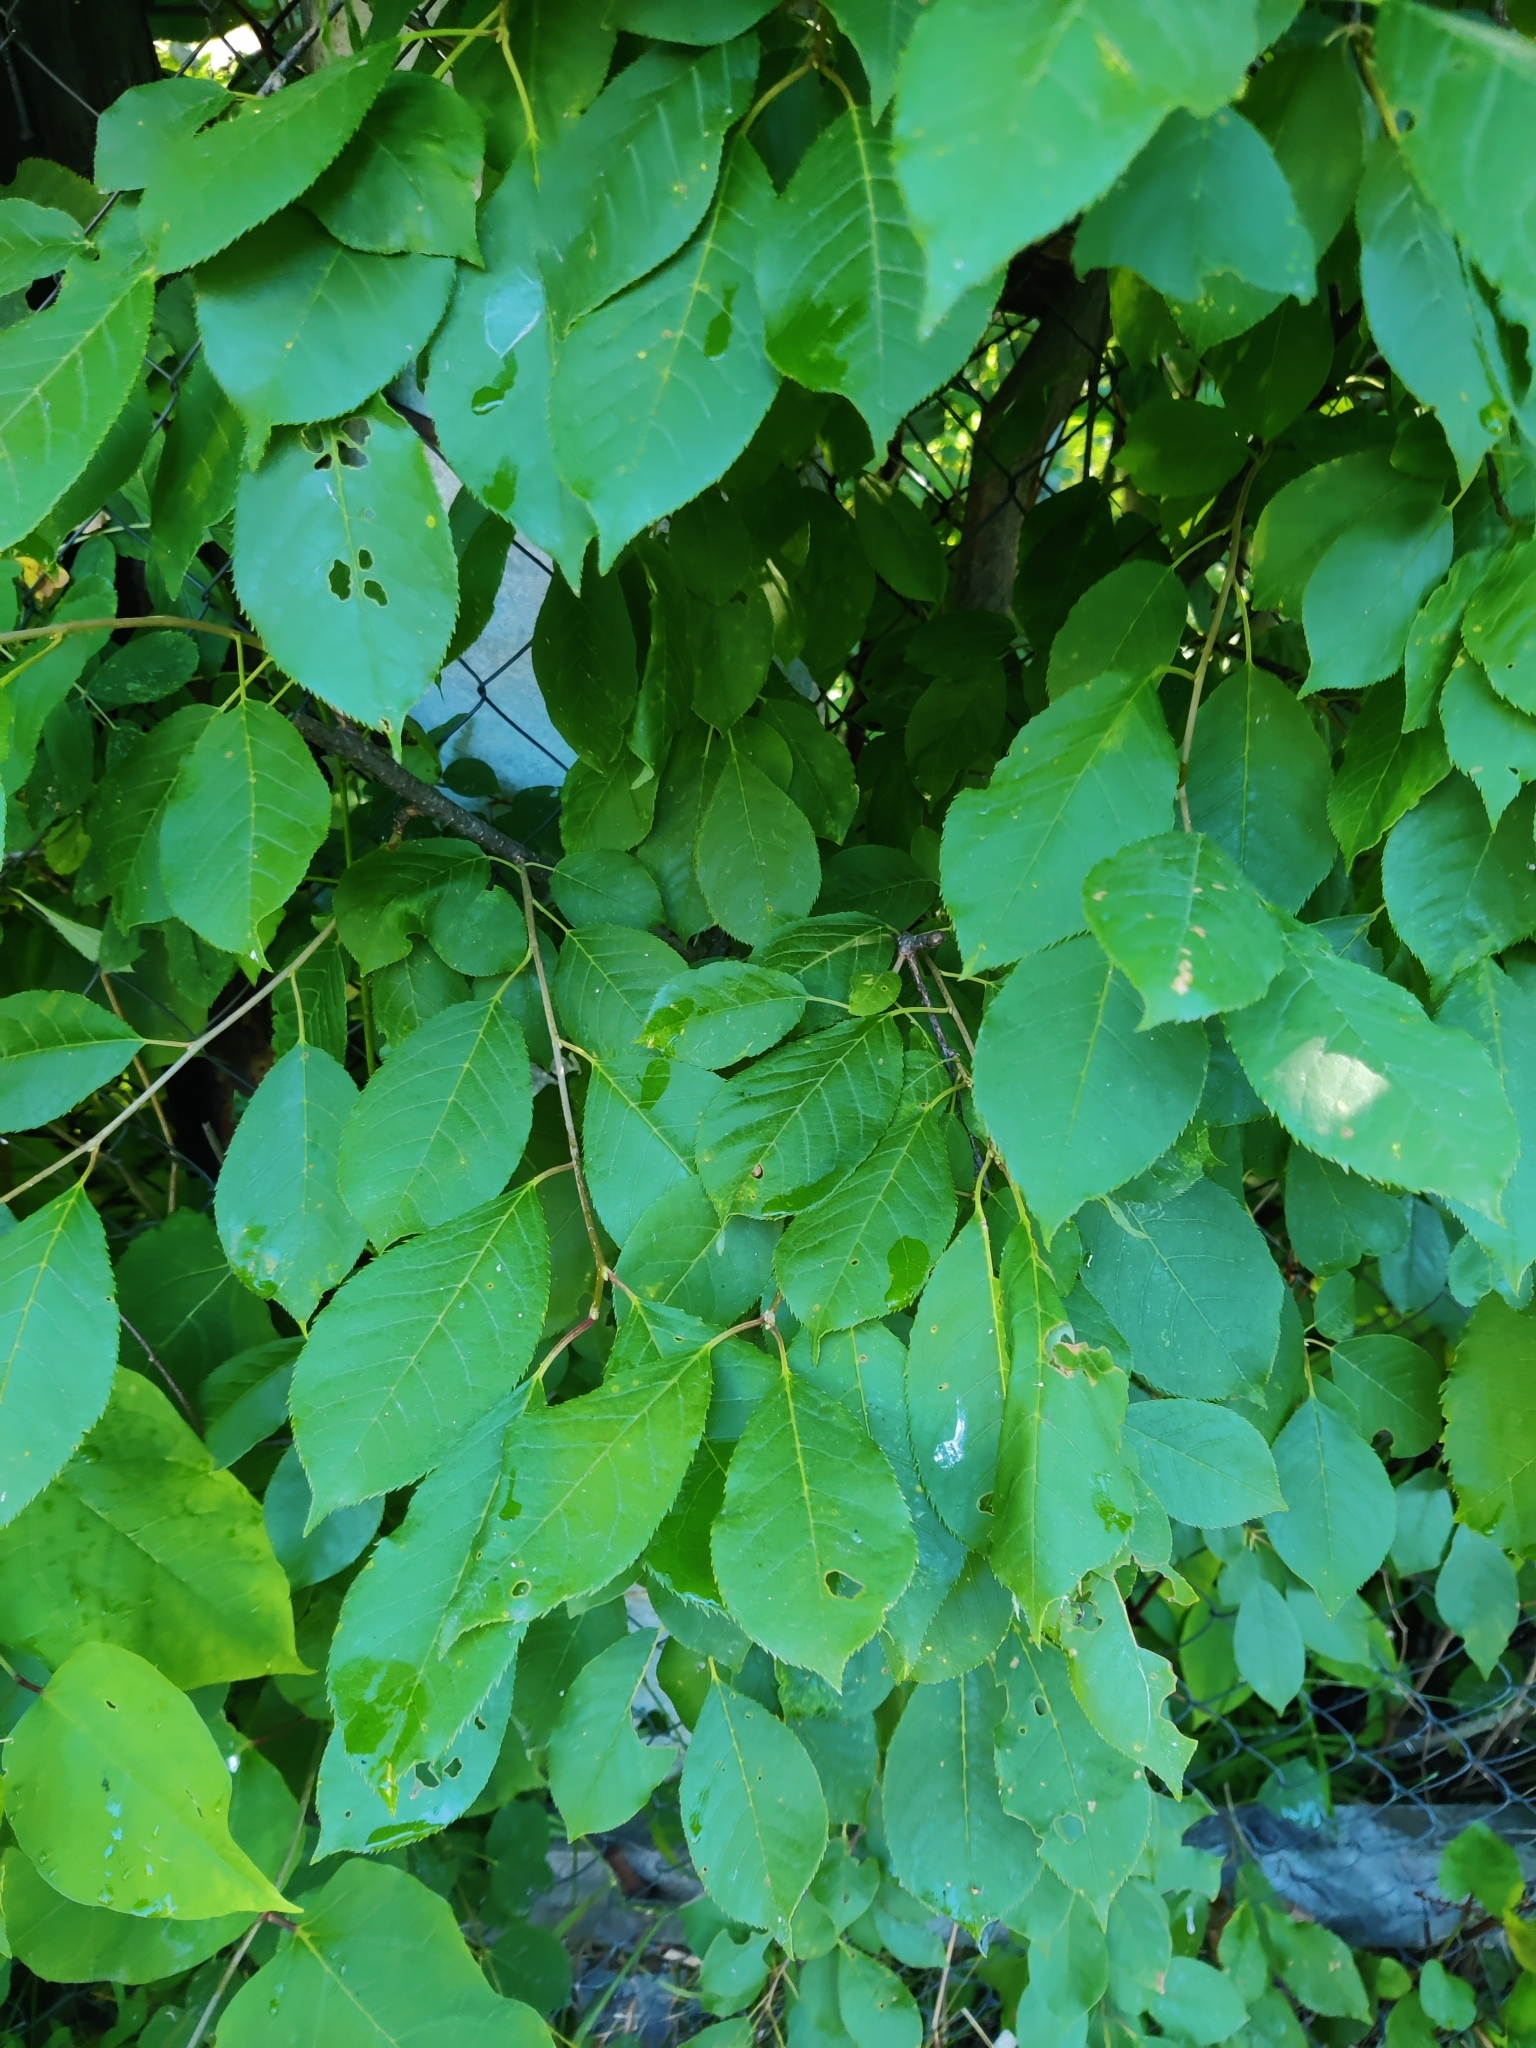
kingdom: Plantae
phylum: Tracheophyta
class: Magnoliopsida
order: Rosales
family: Rosaceae
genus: Prunus
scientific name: Prunus padus
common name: Bird cherry
